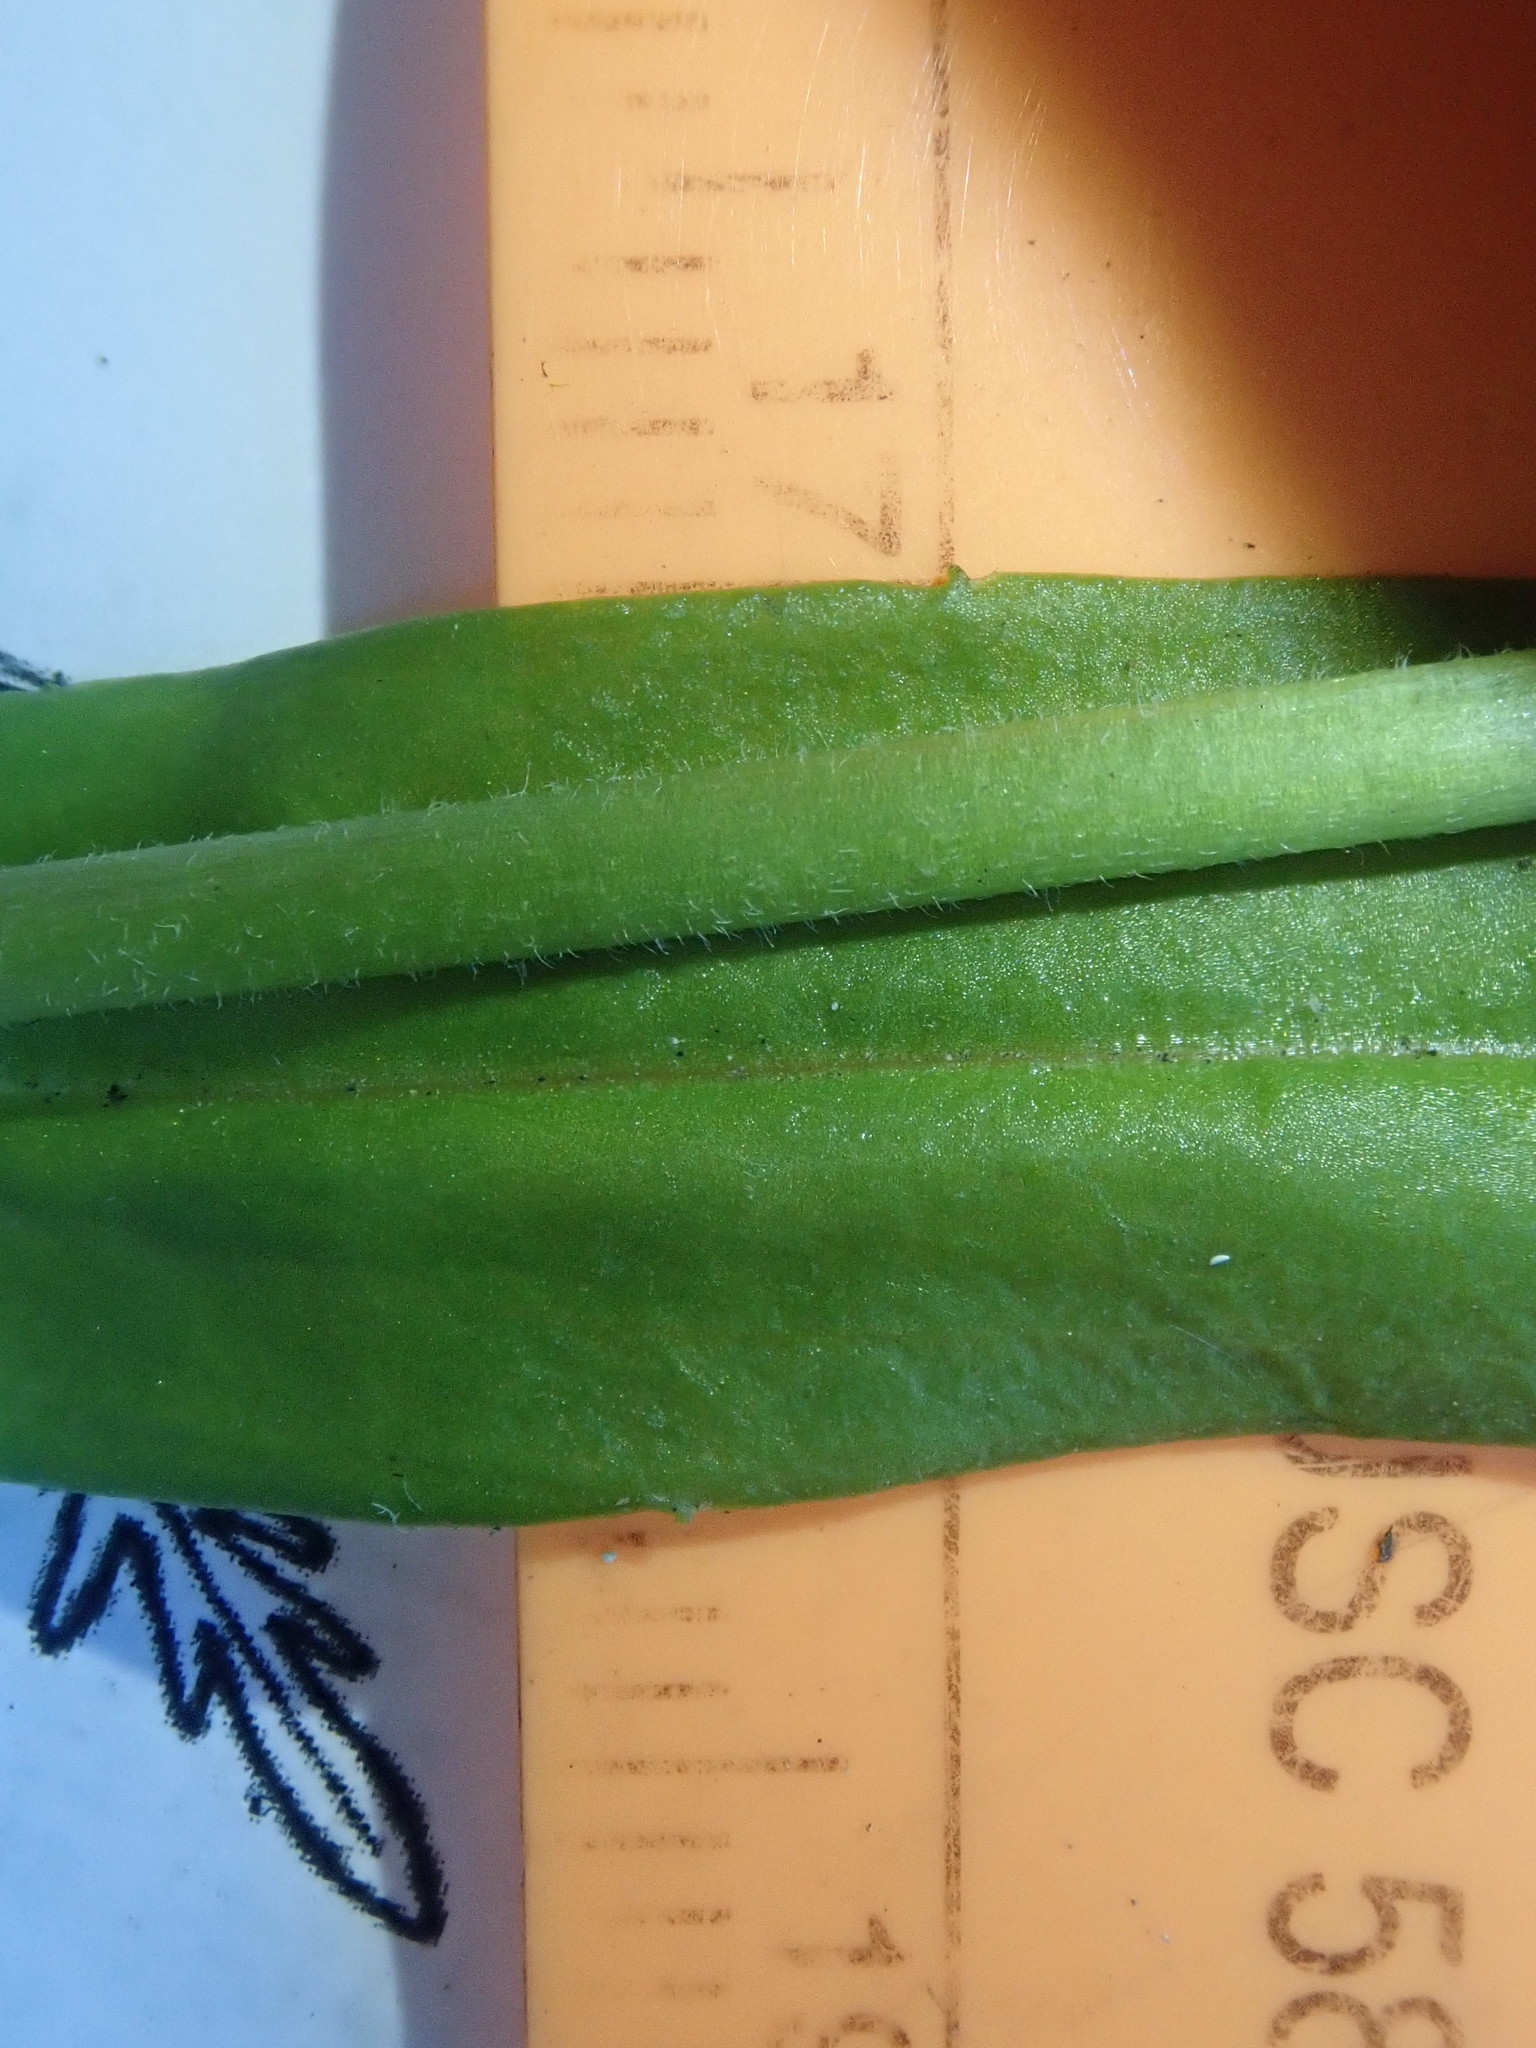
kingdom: Plantae
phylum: Tracheophyta
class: Magnoliopsida
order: Lamiales
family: Plantaginaceae
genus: Veronica
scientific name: Veronica scutellata
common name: Marsh speedwell
